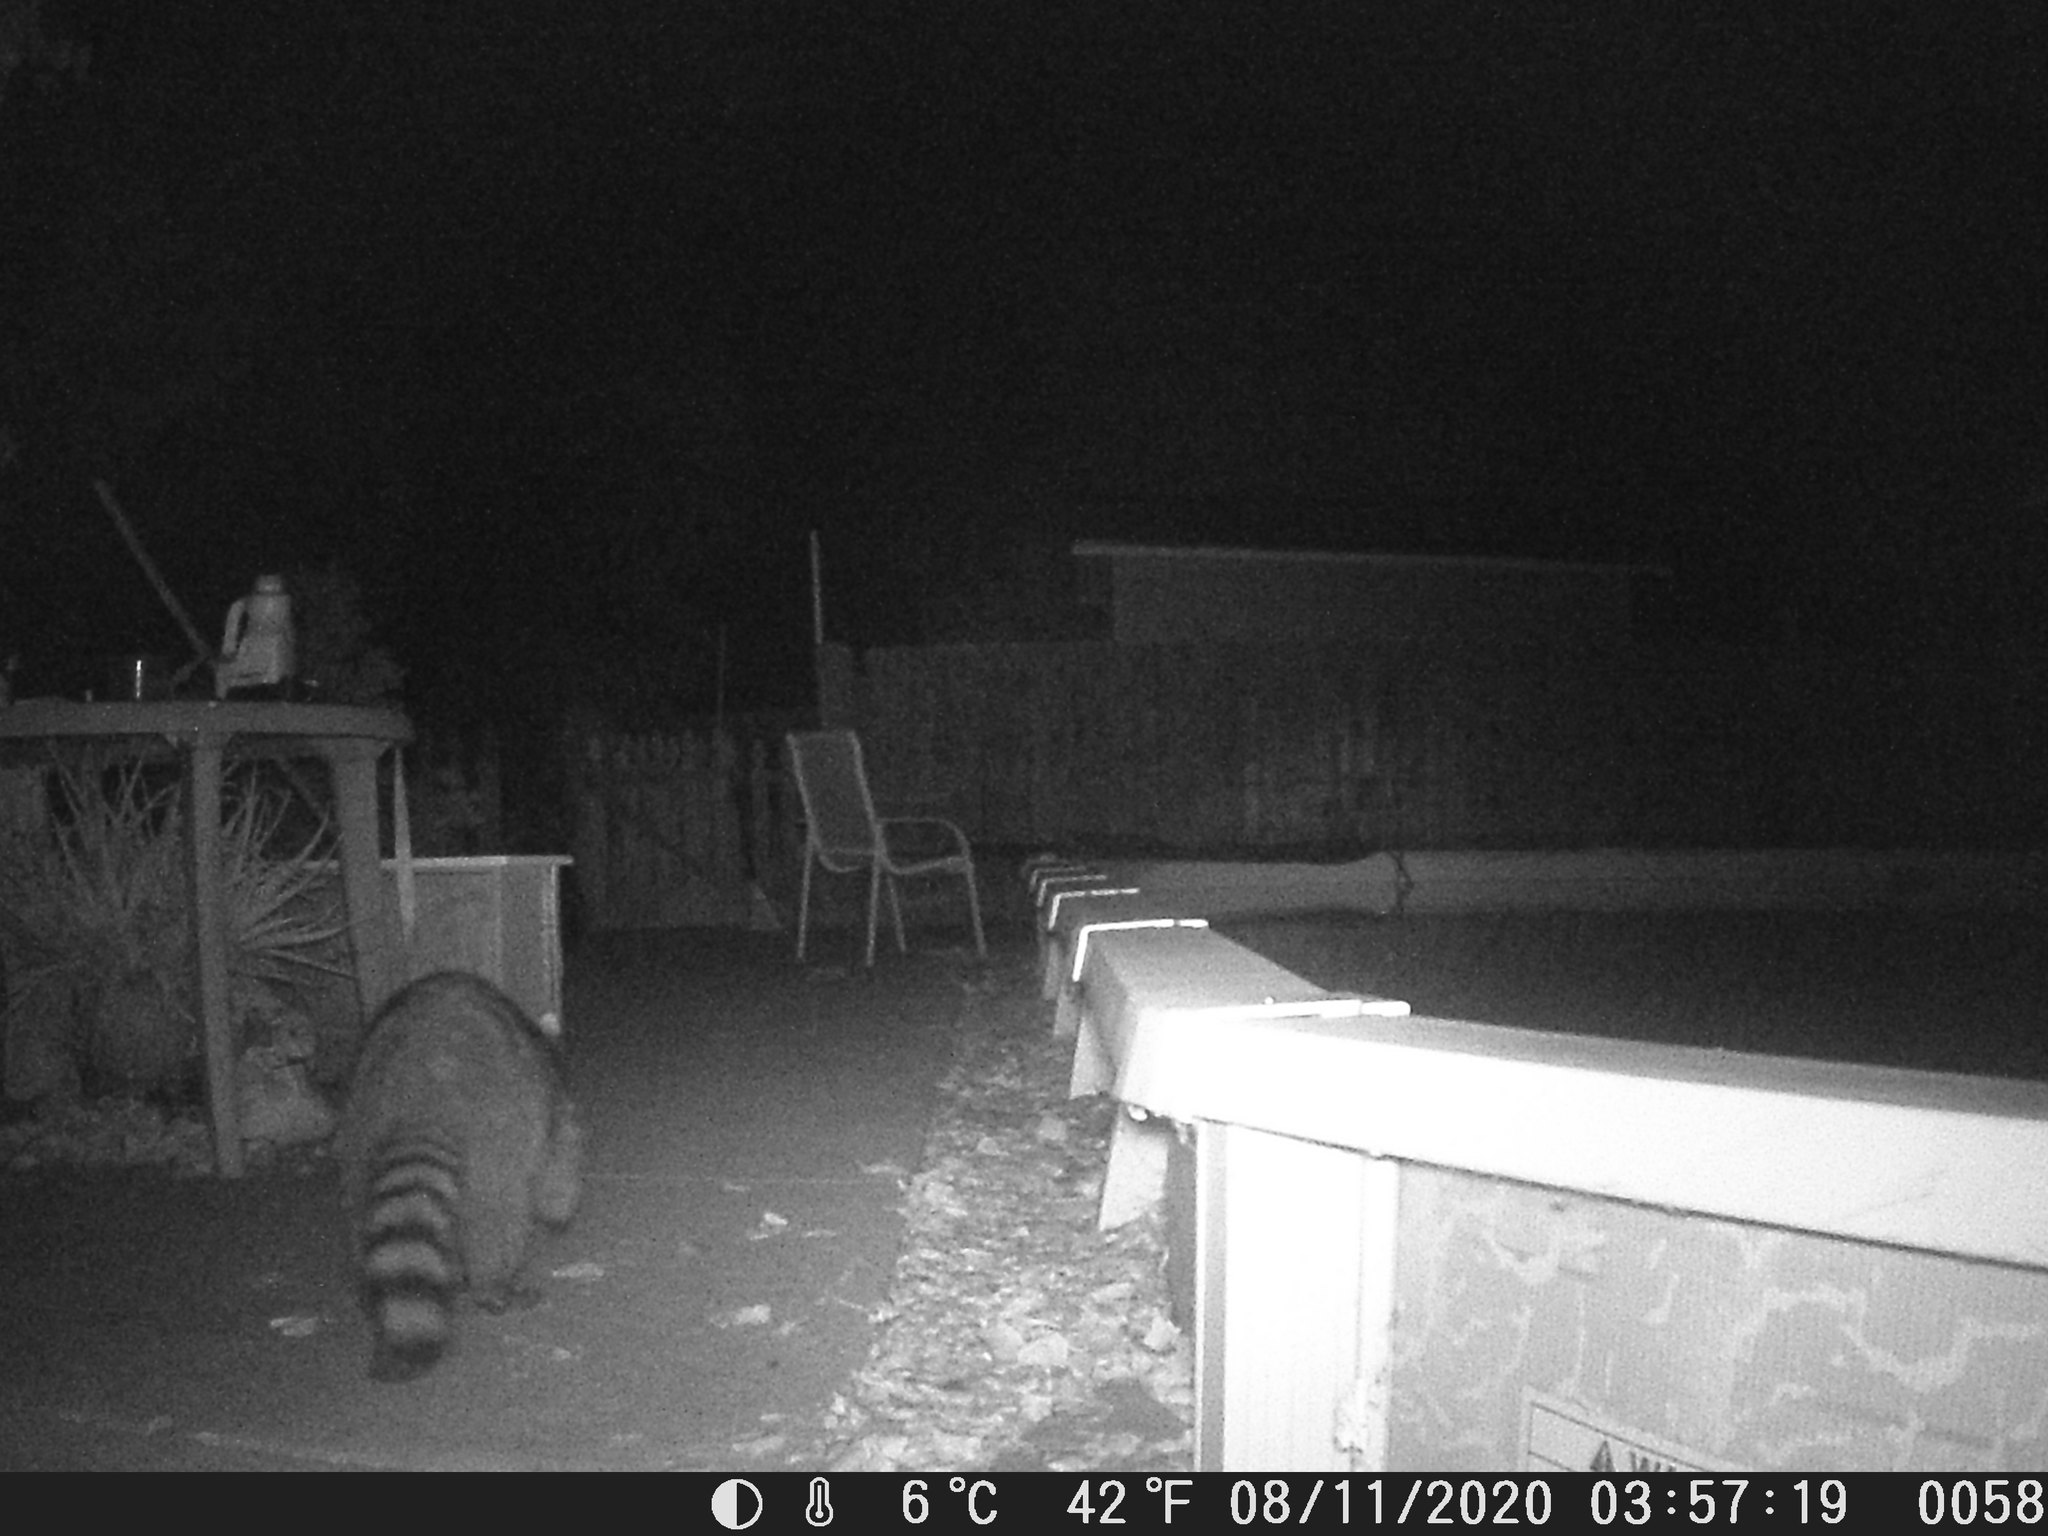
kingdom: Animalia
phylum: Chordata
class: Mammalia
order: Carnivora
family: Procyonidae
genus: Procyon
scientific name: Procyon lotor
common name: Raccoon
